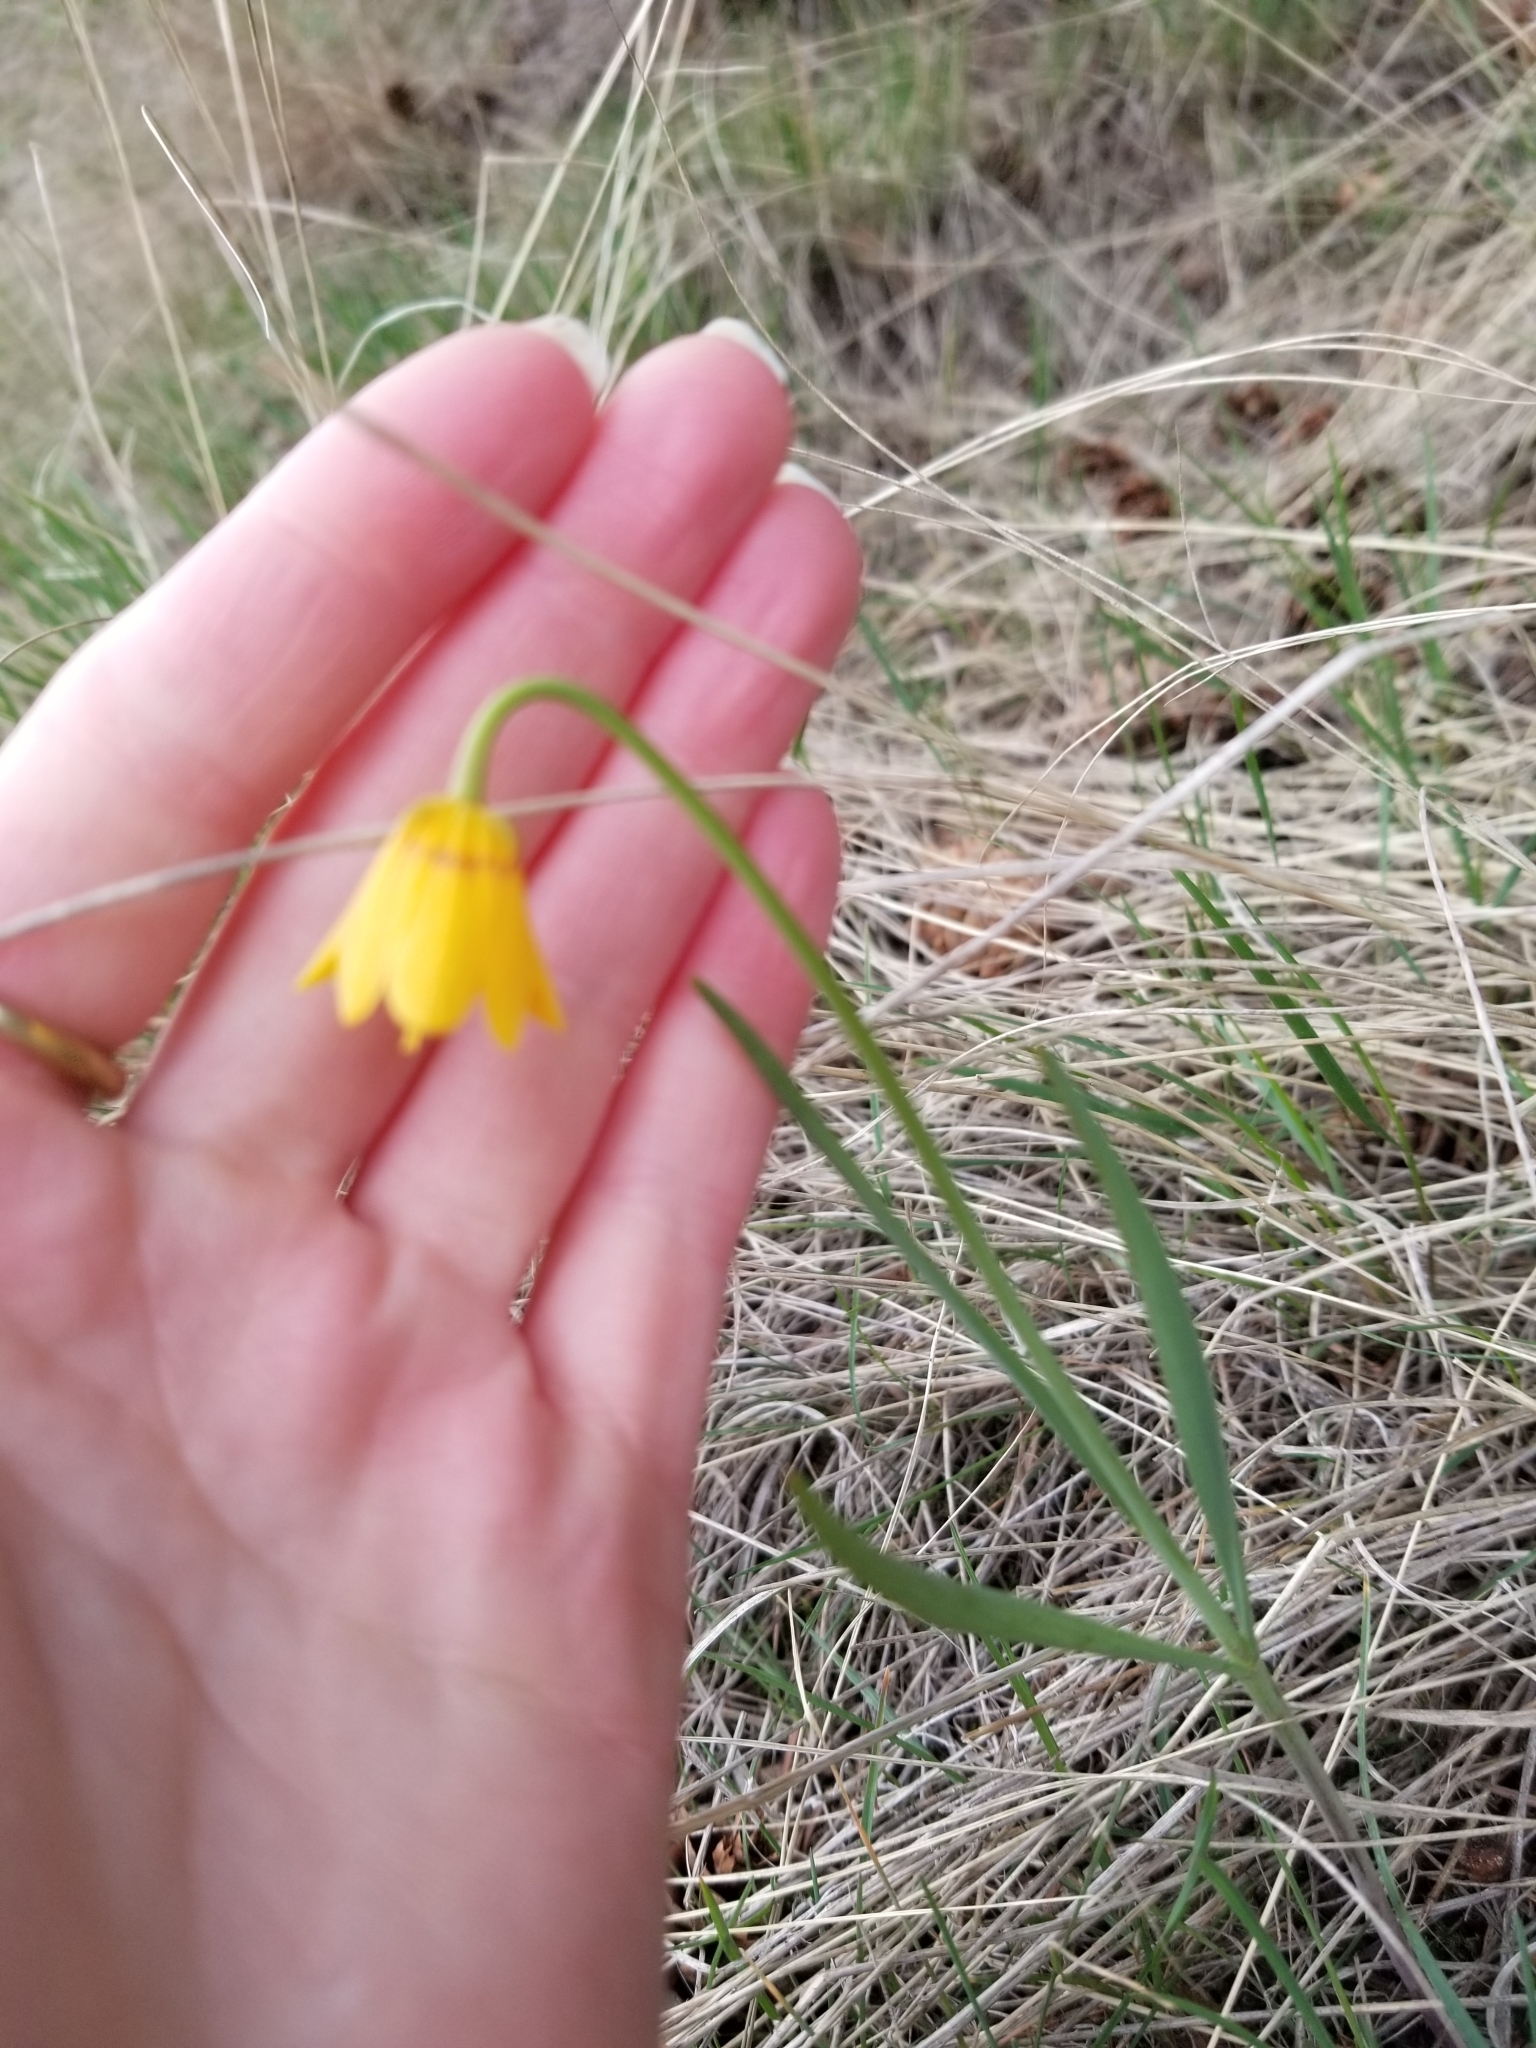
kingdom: Plantae
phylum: Tracheophyta
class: Liliopsida
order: Liliales
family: Liliaceae
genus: Fritillaria
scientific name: Fritillaria pudica
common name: Yellow fritillary
